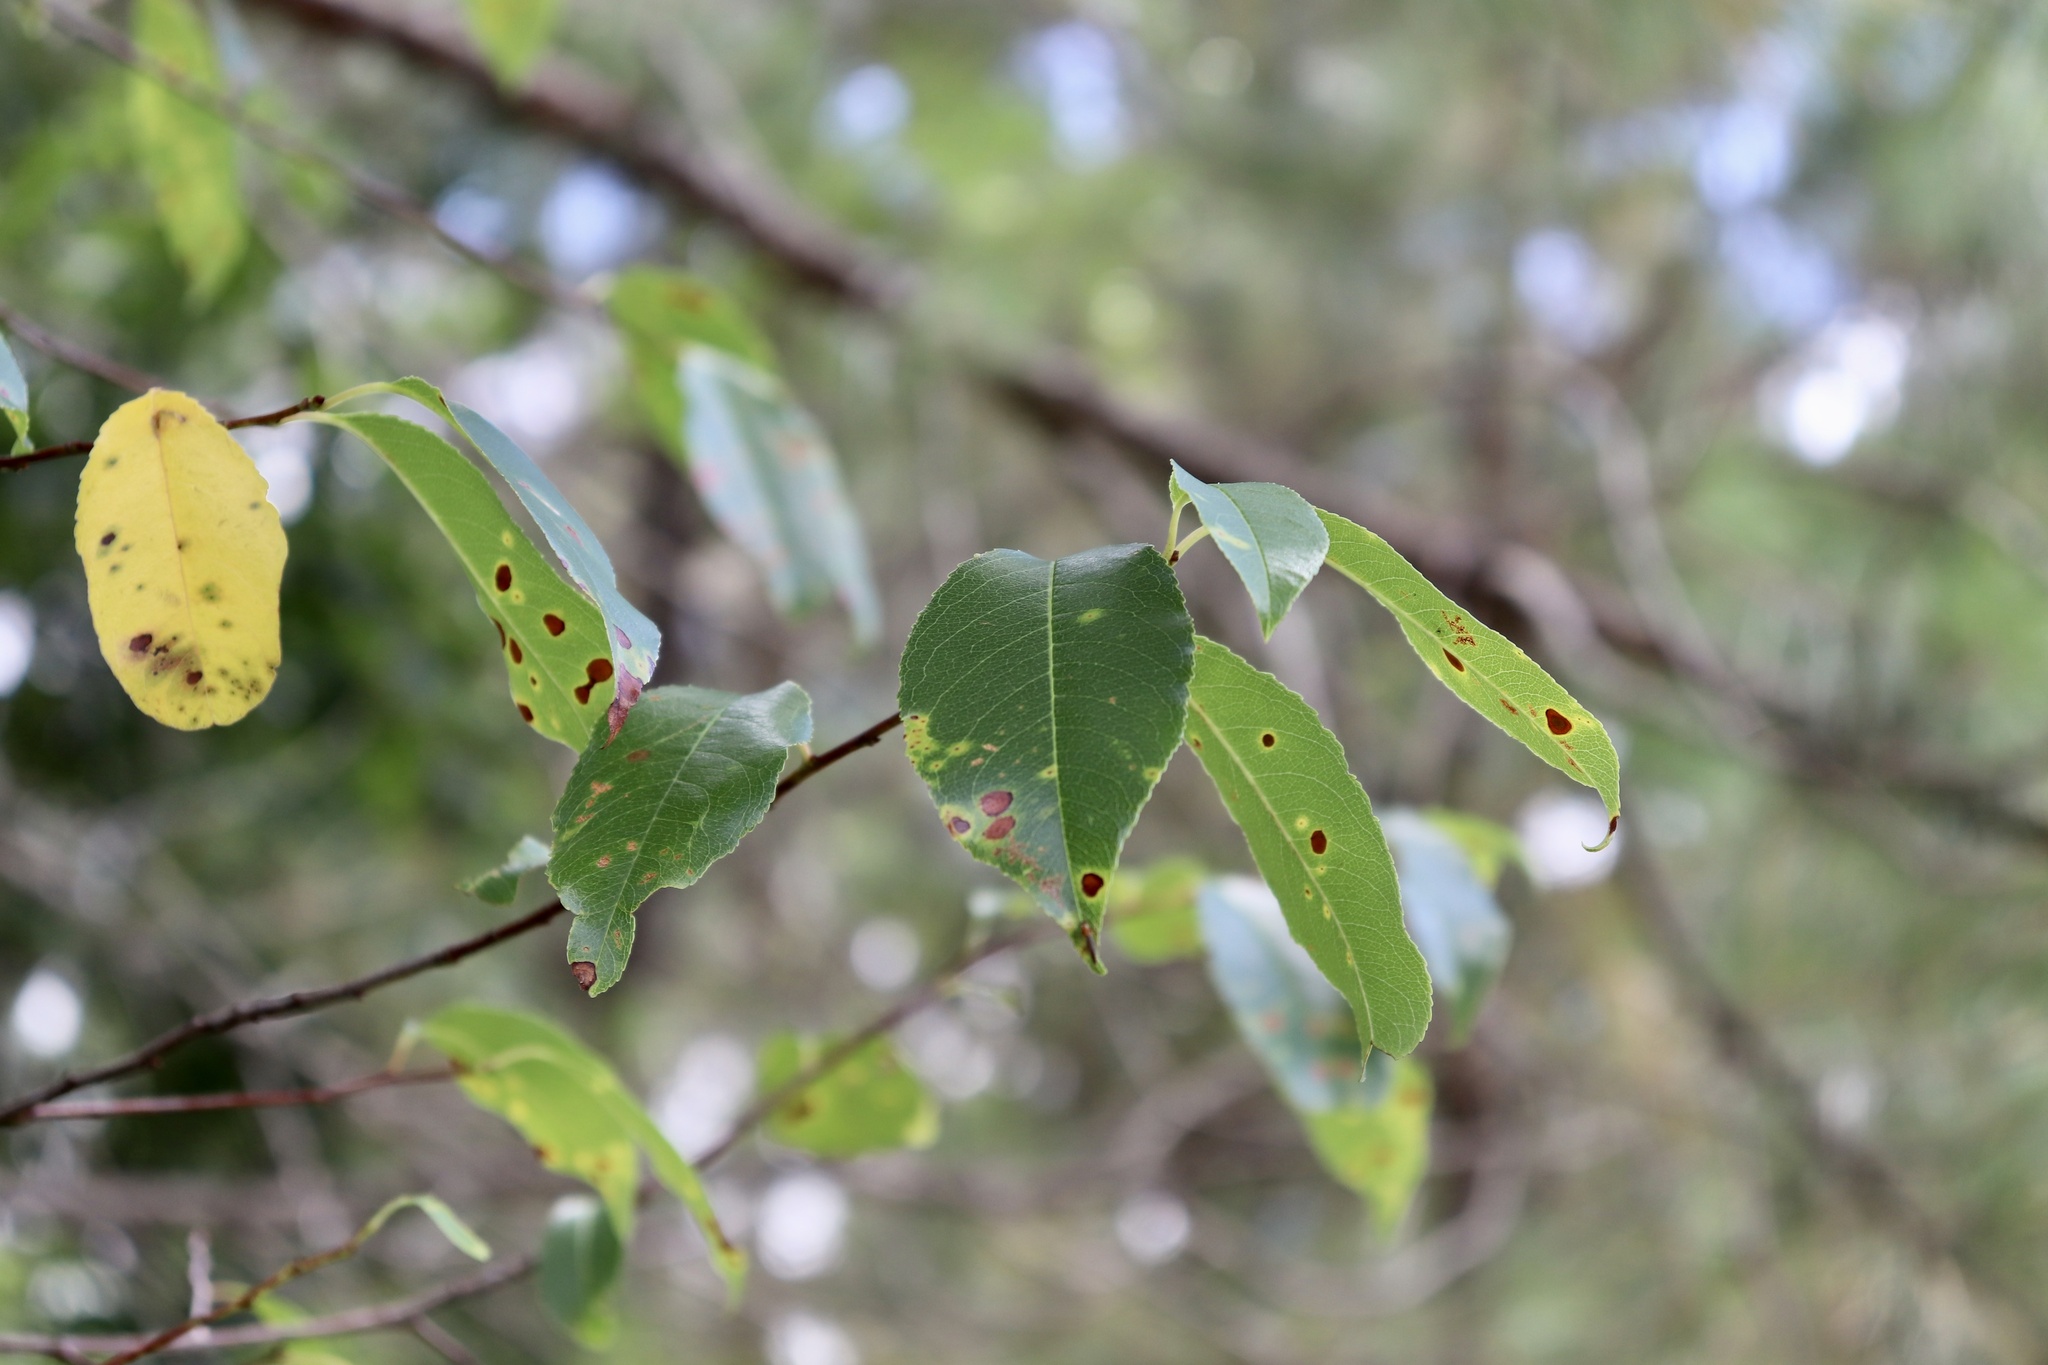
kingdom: Plantae
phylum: Tracheophyta
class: Magnoliopsida
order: Rosales
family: Rosaceae
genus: Prunus
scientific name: Prunus serotina
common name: Black cherry
